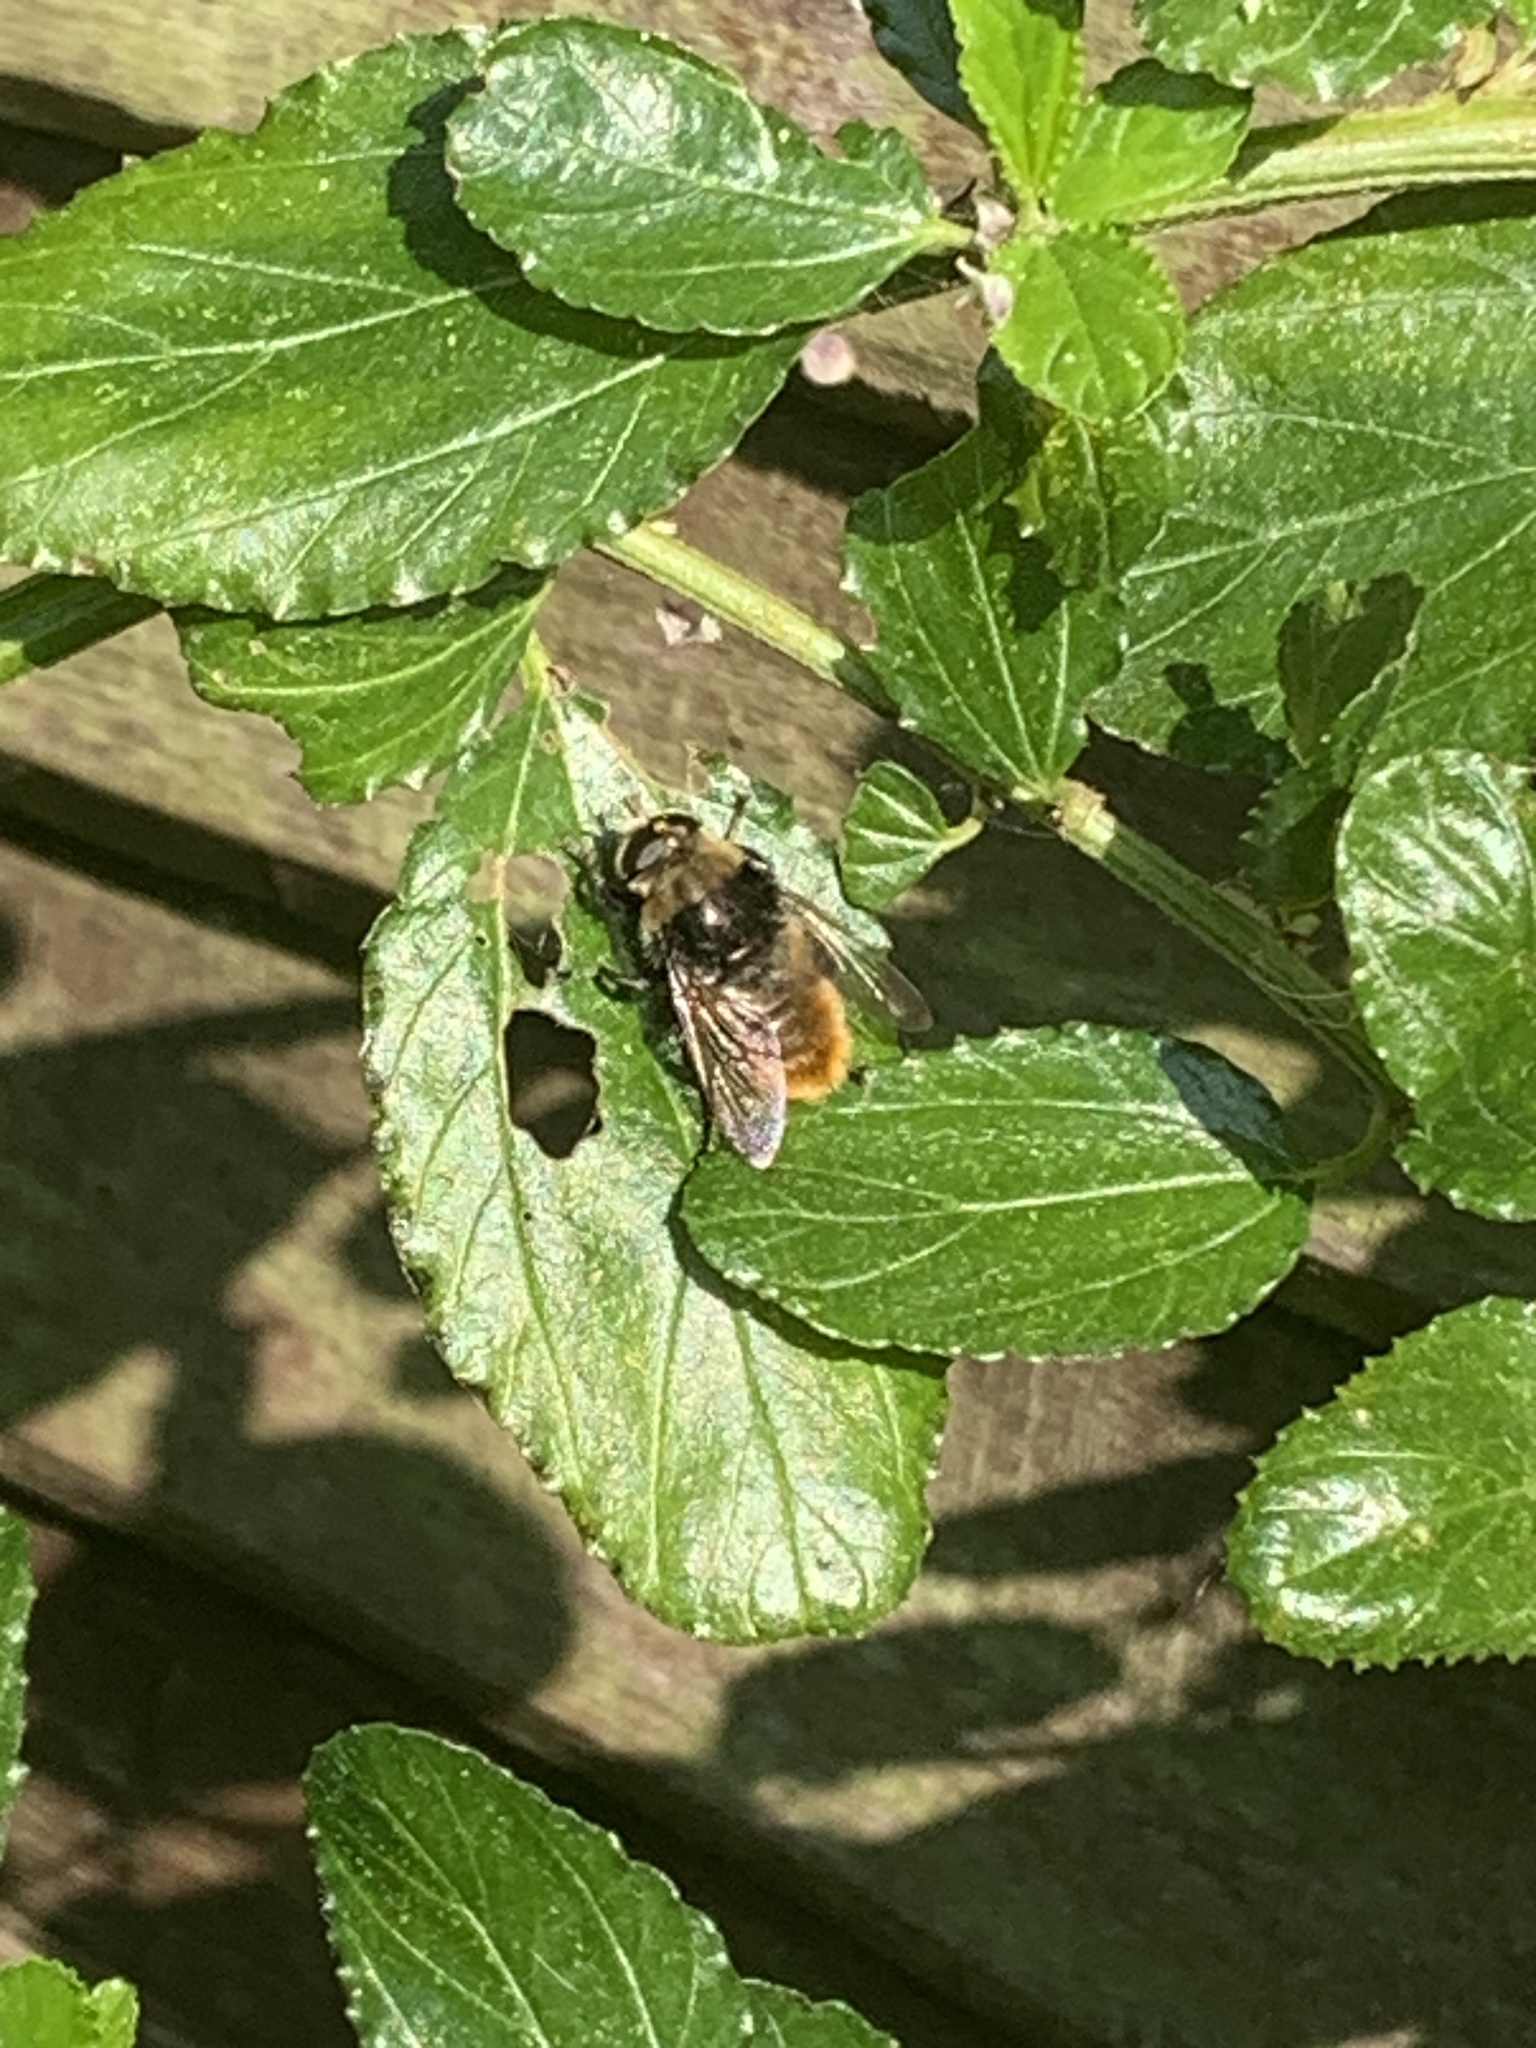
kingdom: Animalia
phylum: Arthropoda
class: Insecta
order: Diptera
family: Syrphidae
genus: Merodon
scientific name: Merodon equestris
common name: Greater bulb-fly
